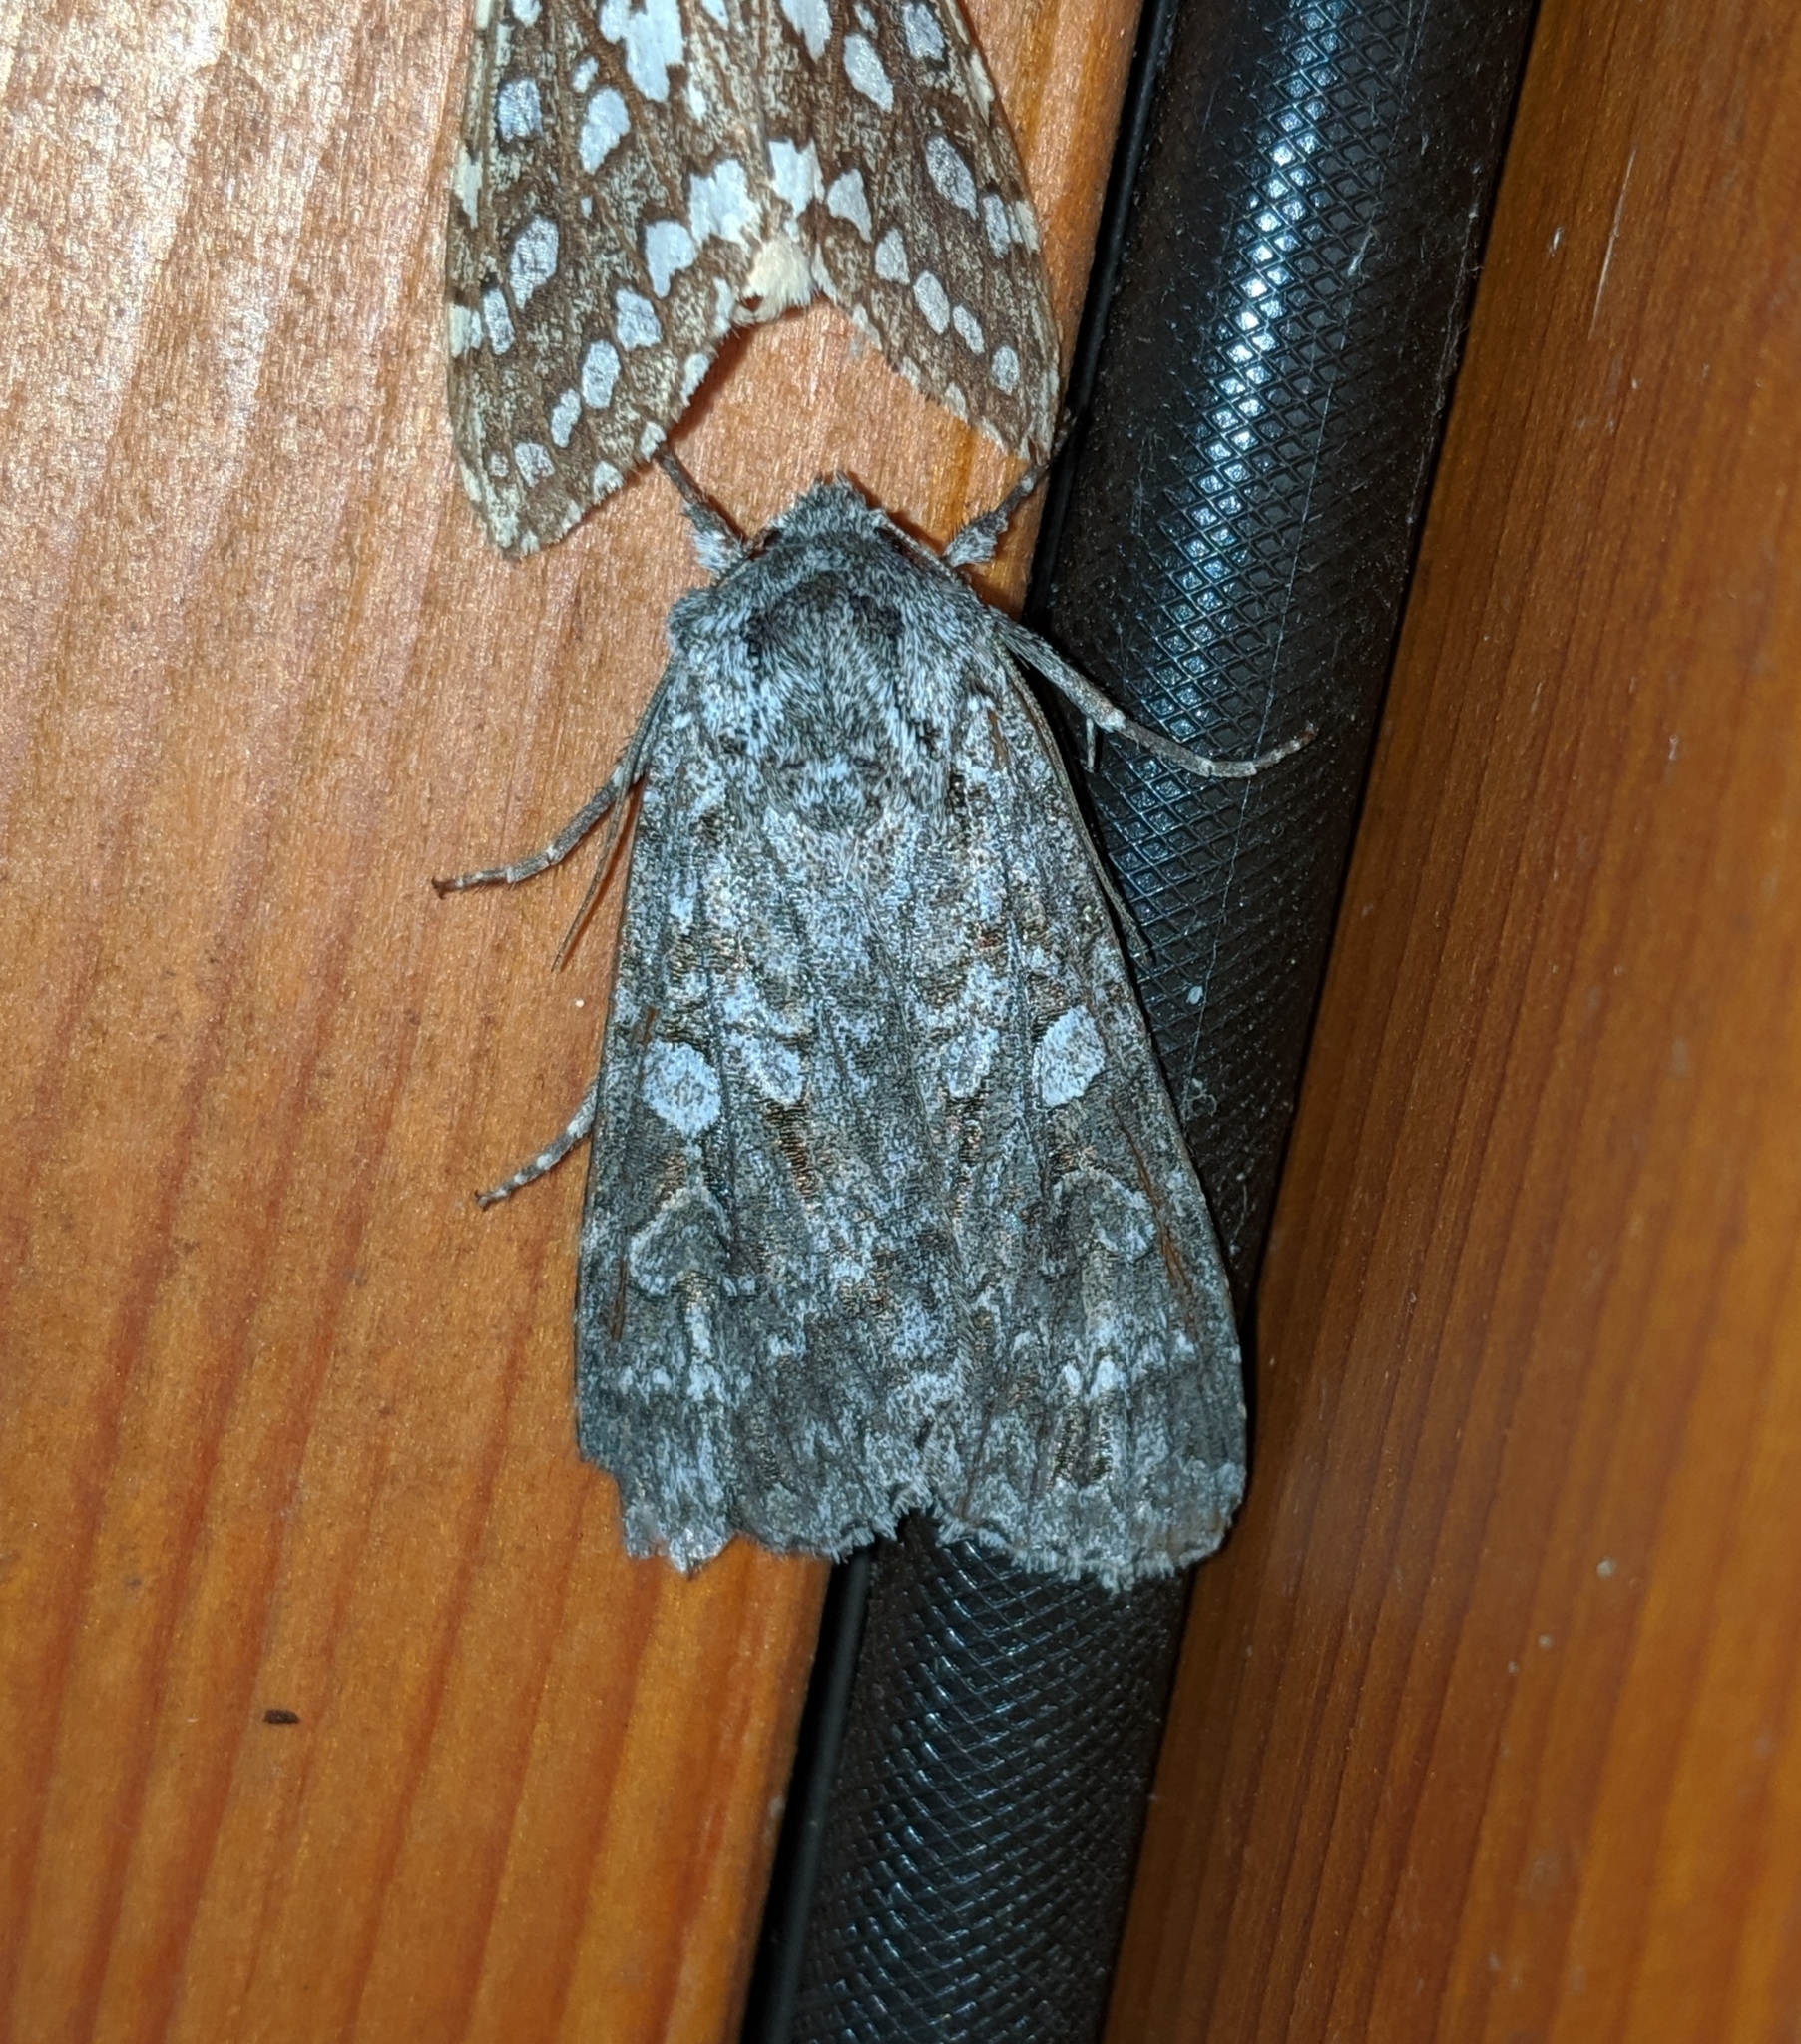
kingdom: Animalia
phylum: Arthropoda
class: Insecta
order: Lepidoptera
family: Noctuidae
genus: Eurois
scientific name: Eurois occulta
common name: Great brocade
